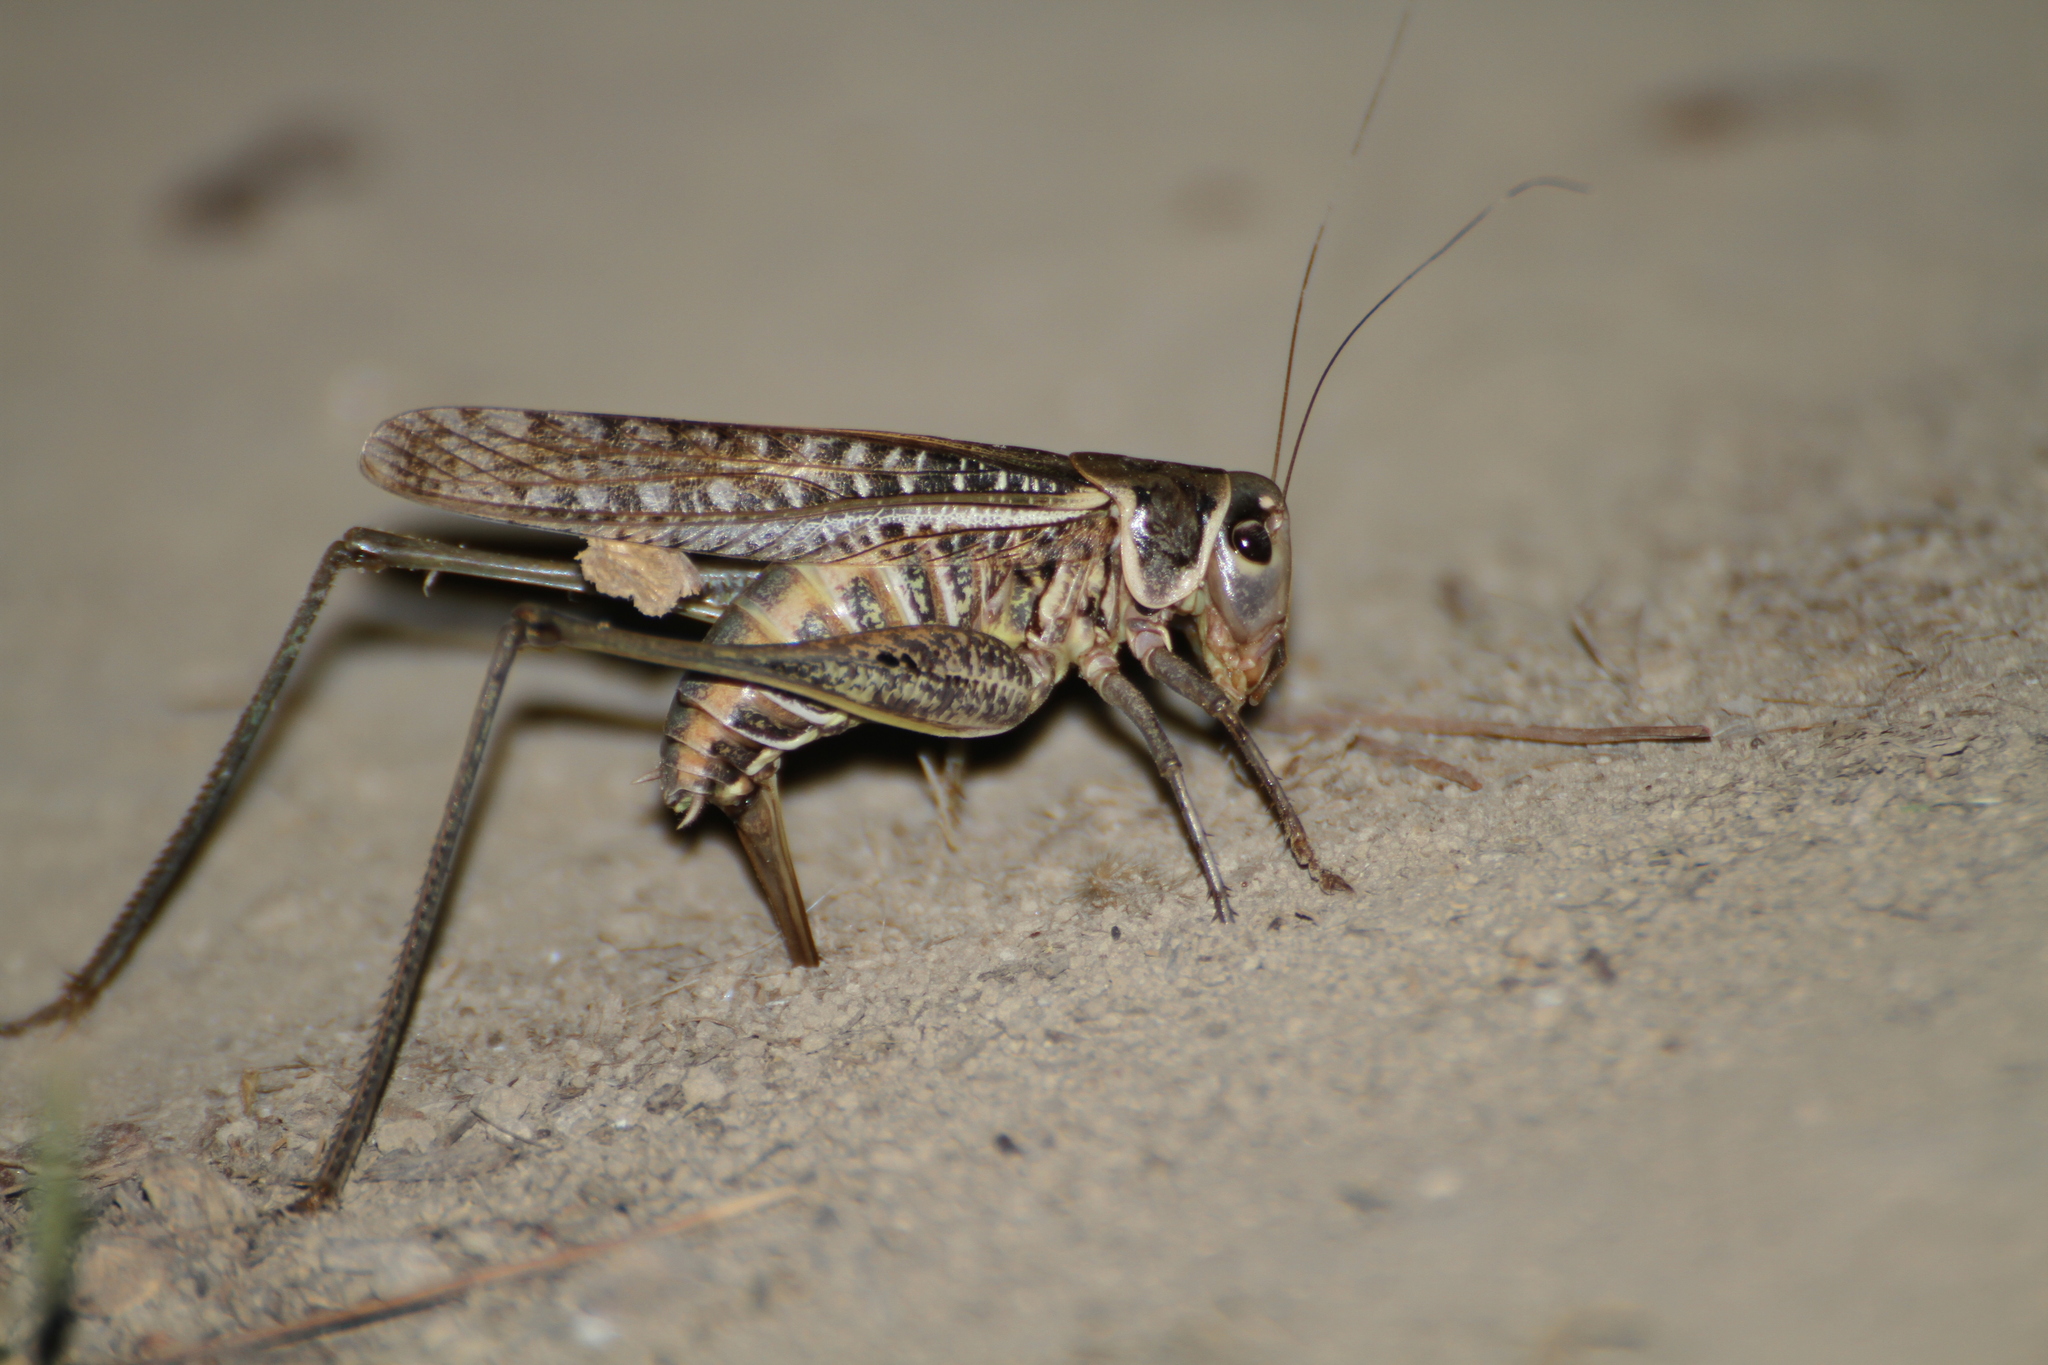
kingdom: Animalia
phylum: Arthropoda
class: Insecta
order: Orthoptera
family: Tettigoniidae
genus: Decticus
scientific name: Decticus albifrons
